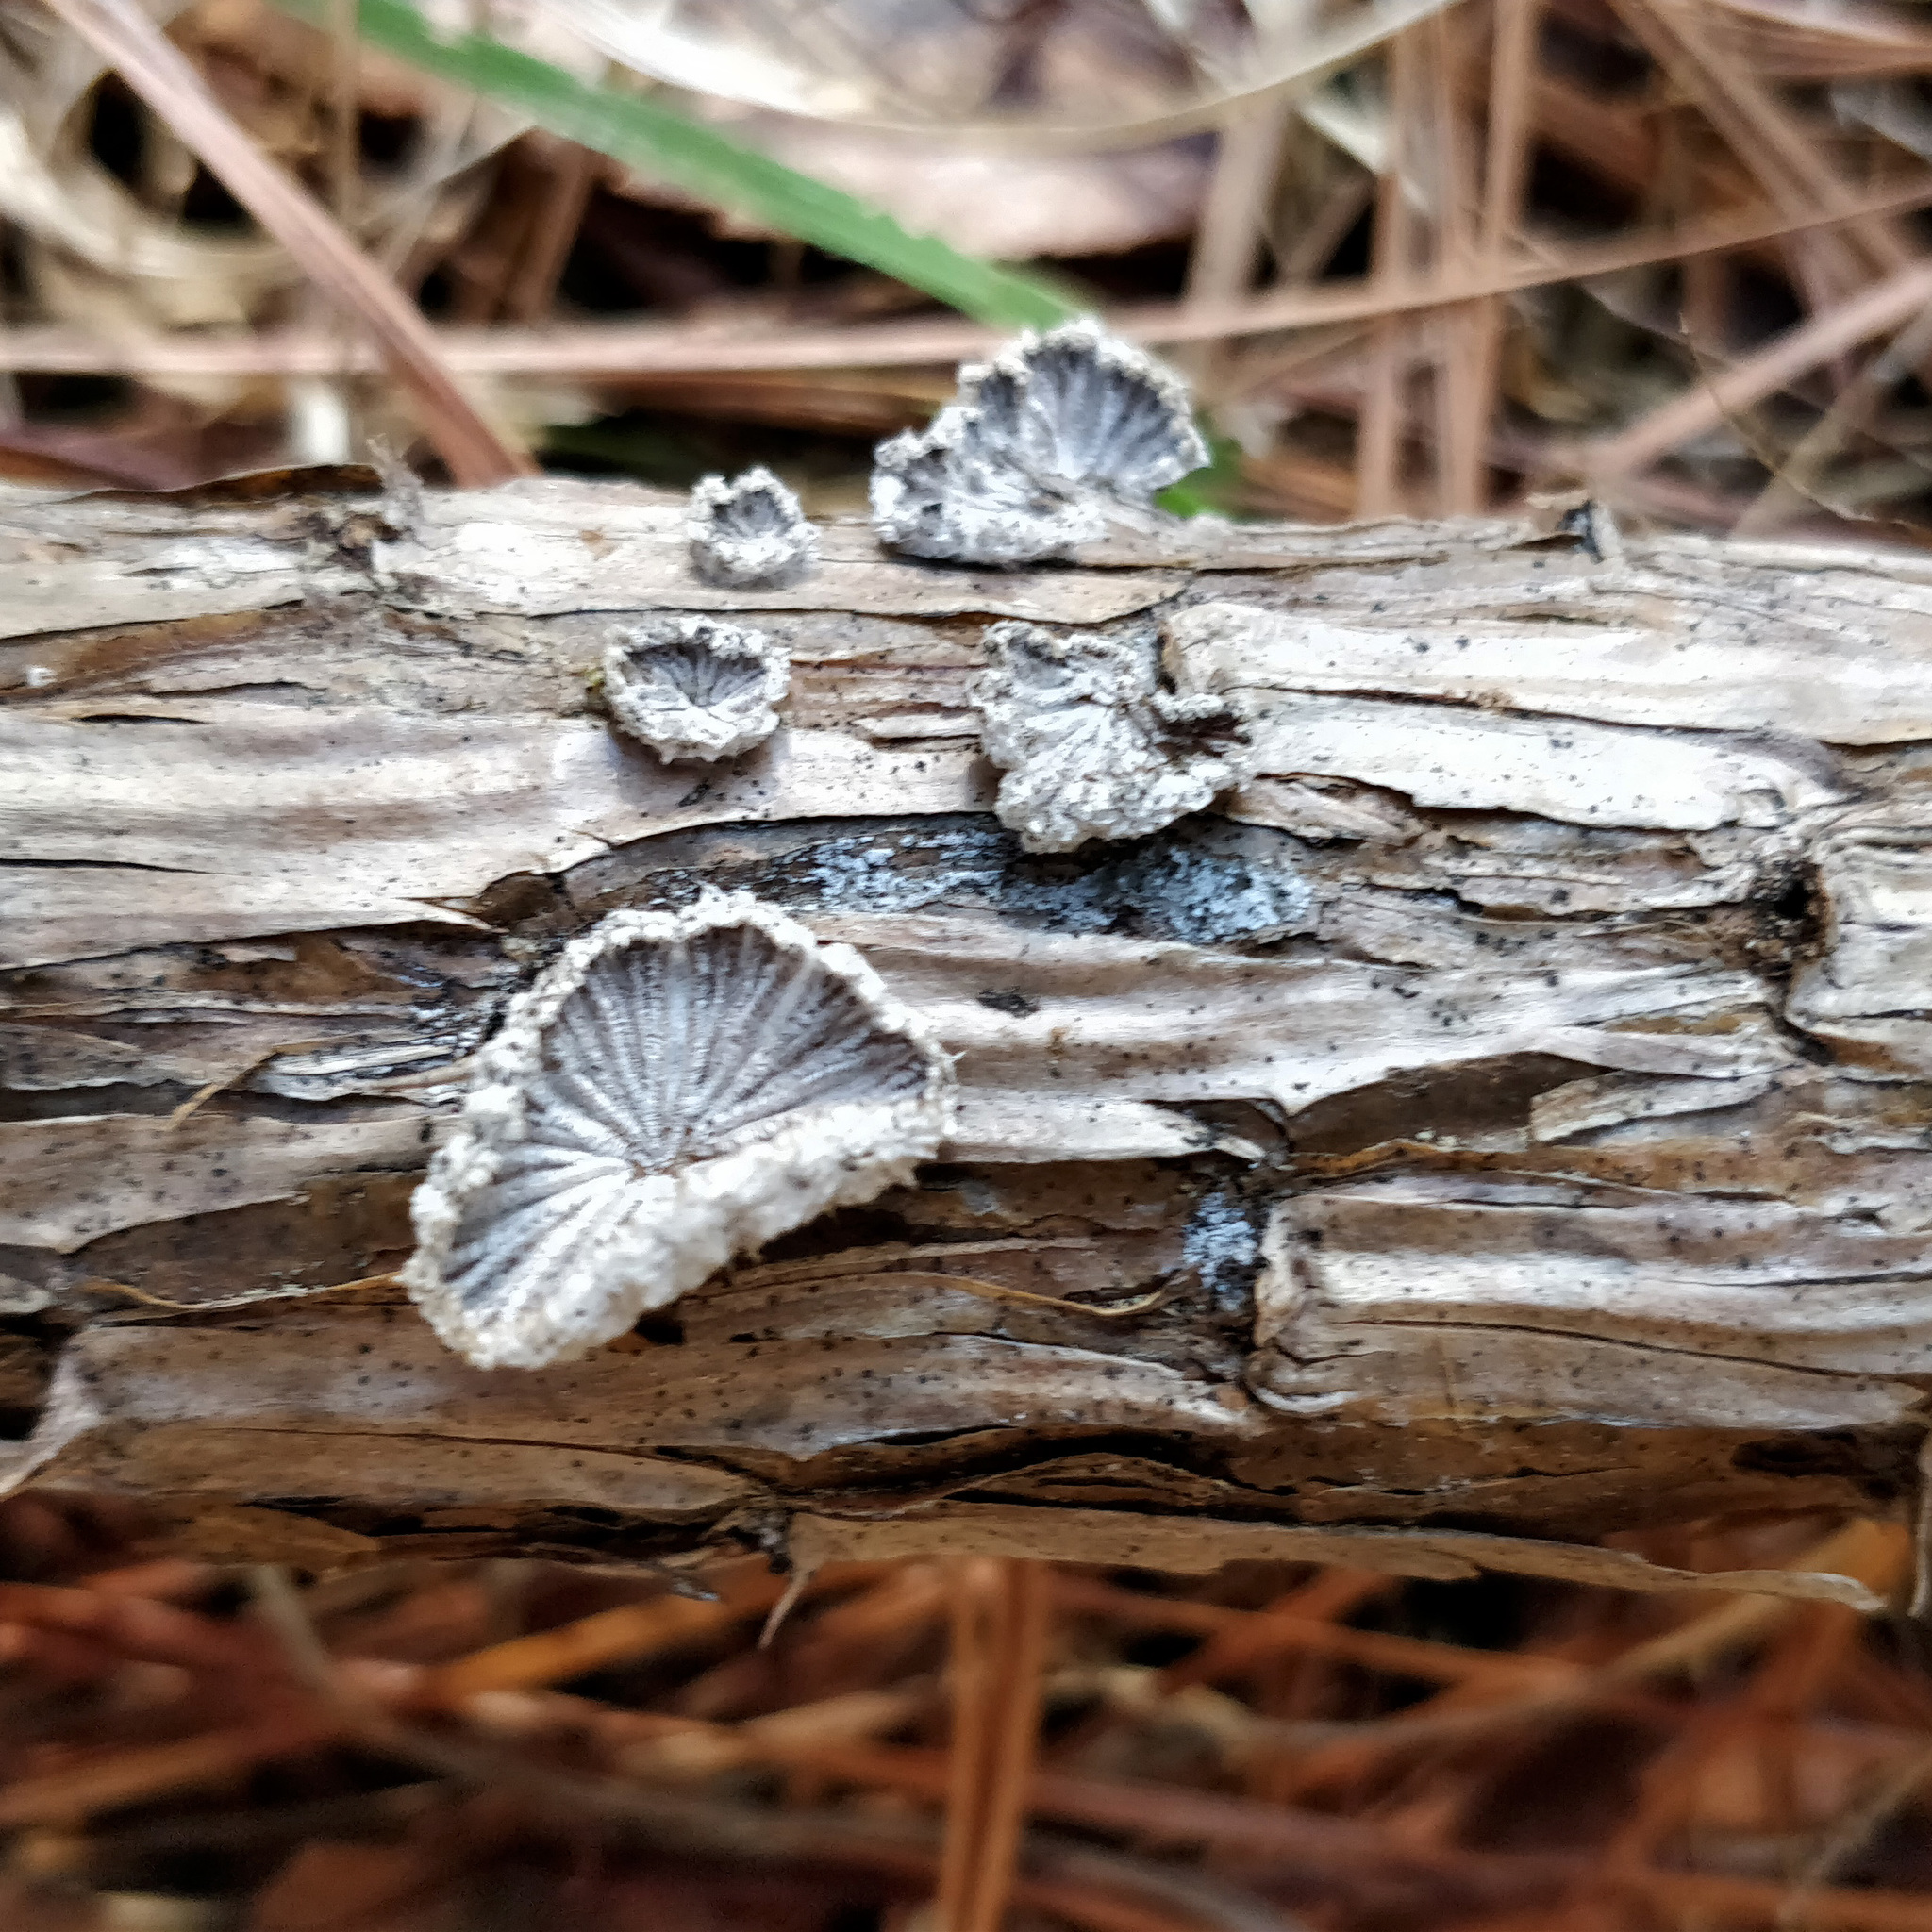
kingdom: Fungi
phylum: Basidiomycota
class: Agaricomycetes
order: Agaricales
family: Schizophyllaceae
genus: Schizophyllum
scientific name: Schizophyllum commune
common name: Common porecrust
